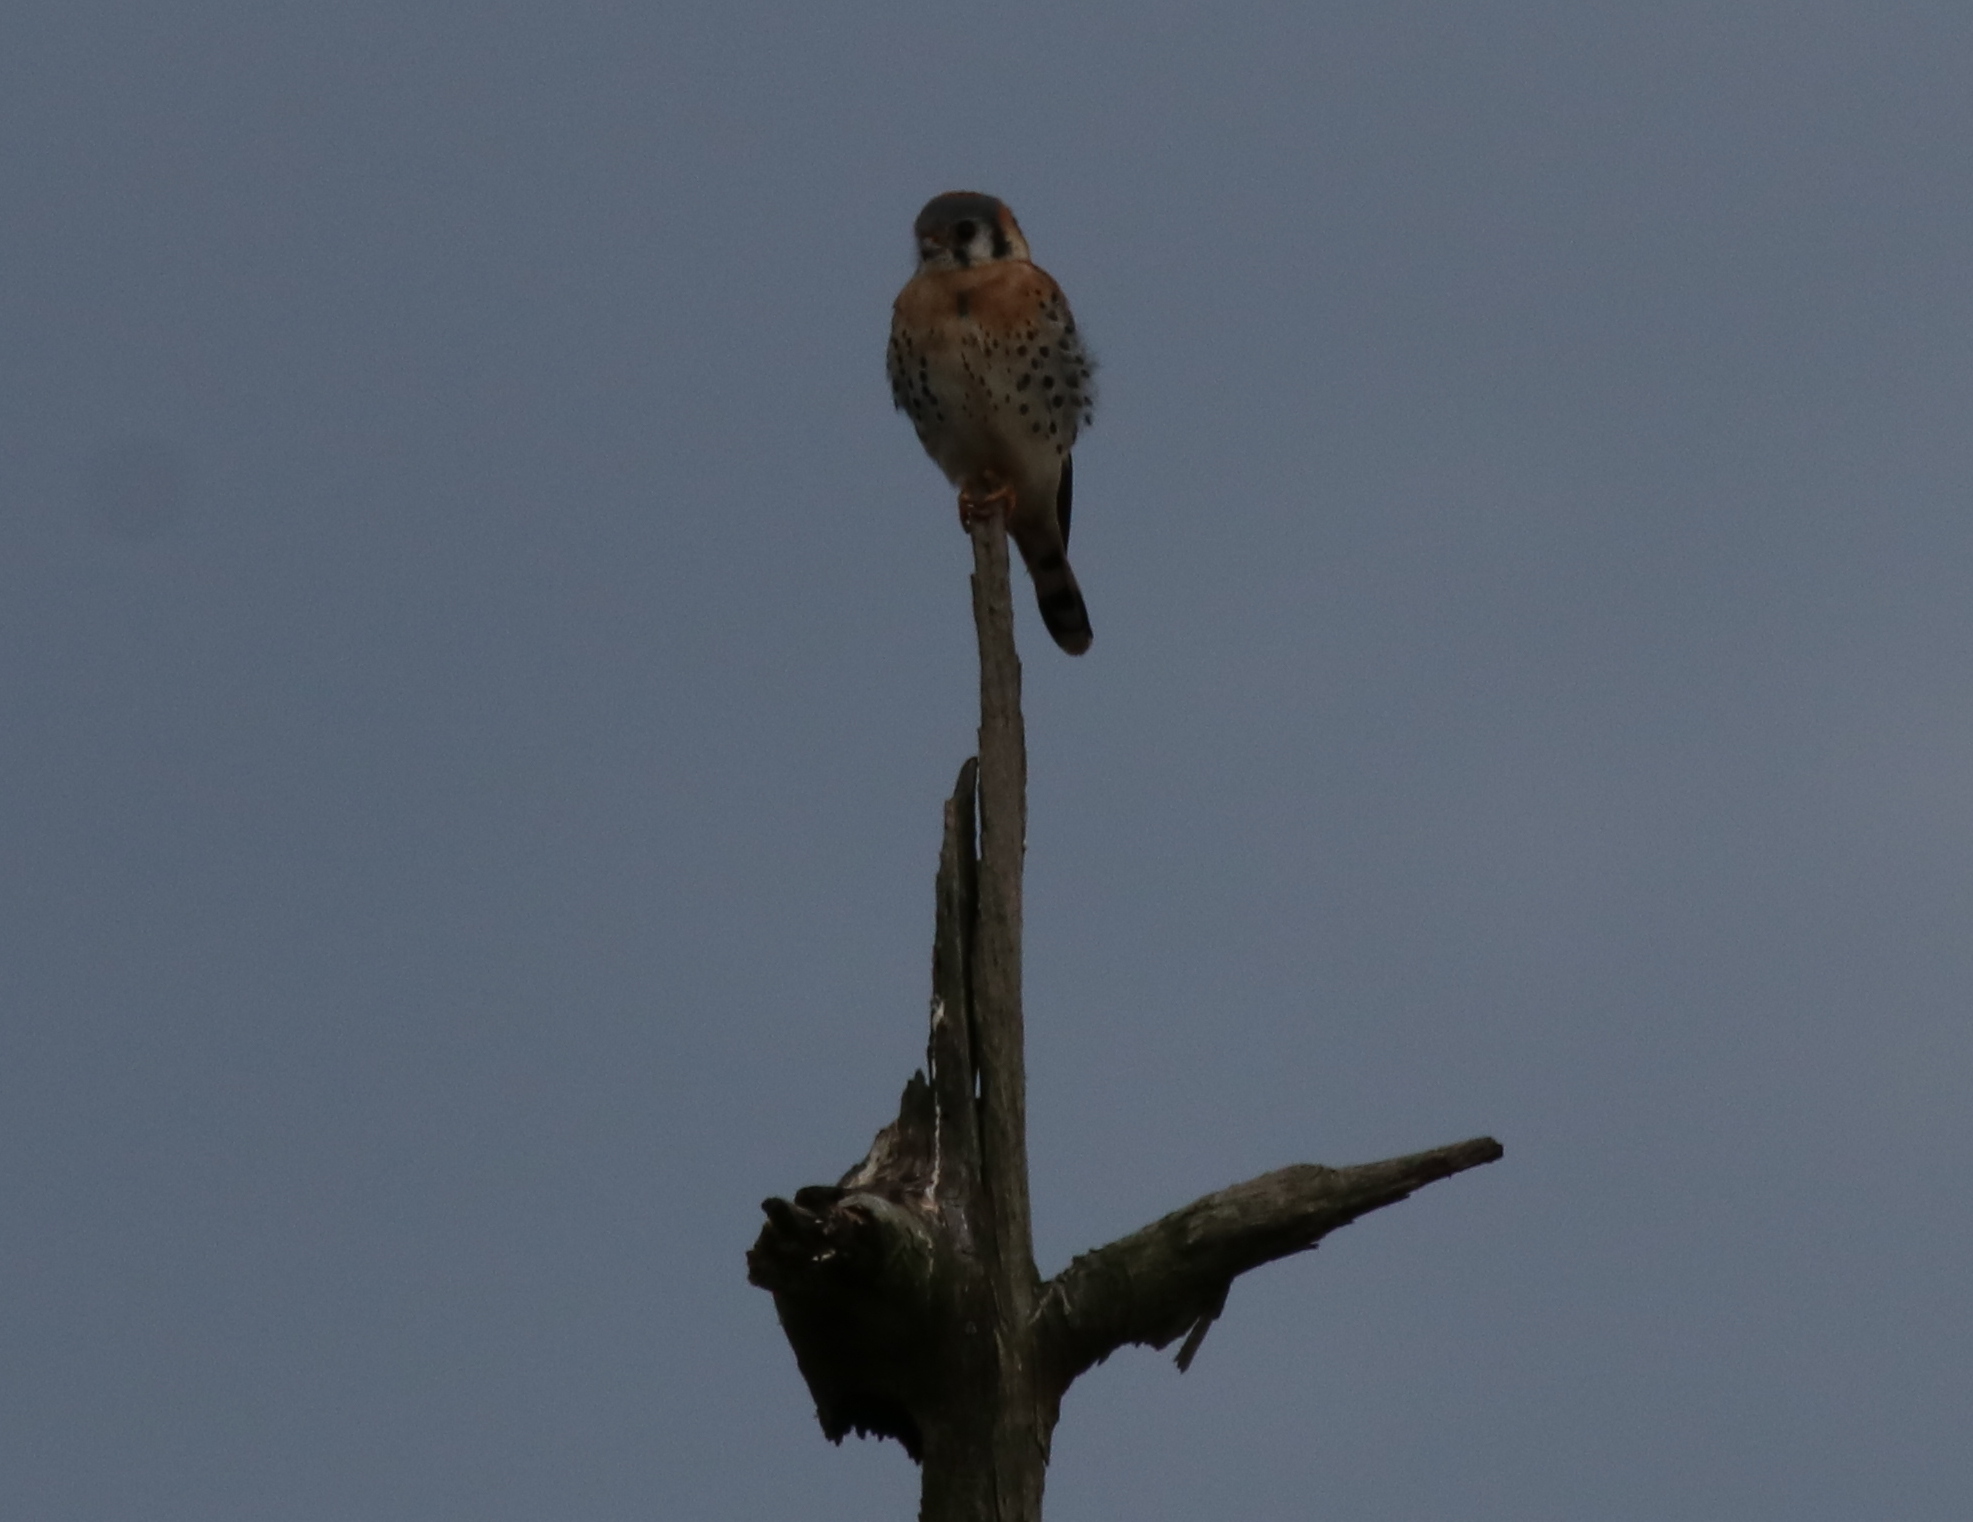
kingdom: Animalia
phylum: Chordata
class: Aves
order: Falconiformes
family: Falconidae
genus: Falco
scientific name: Falco sparverius
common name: American kestrel
